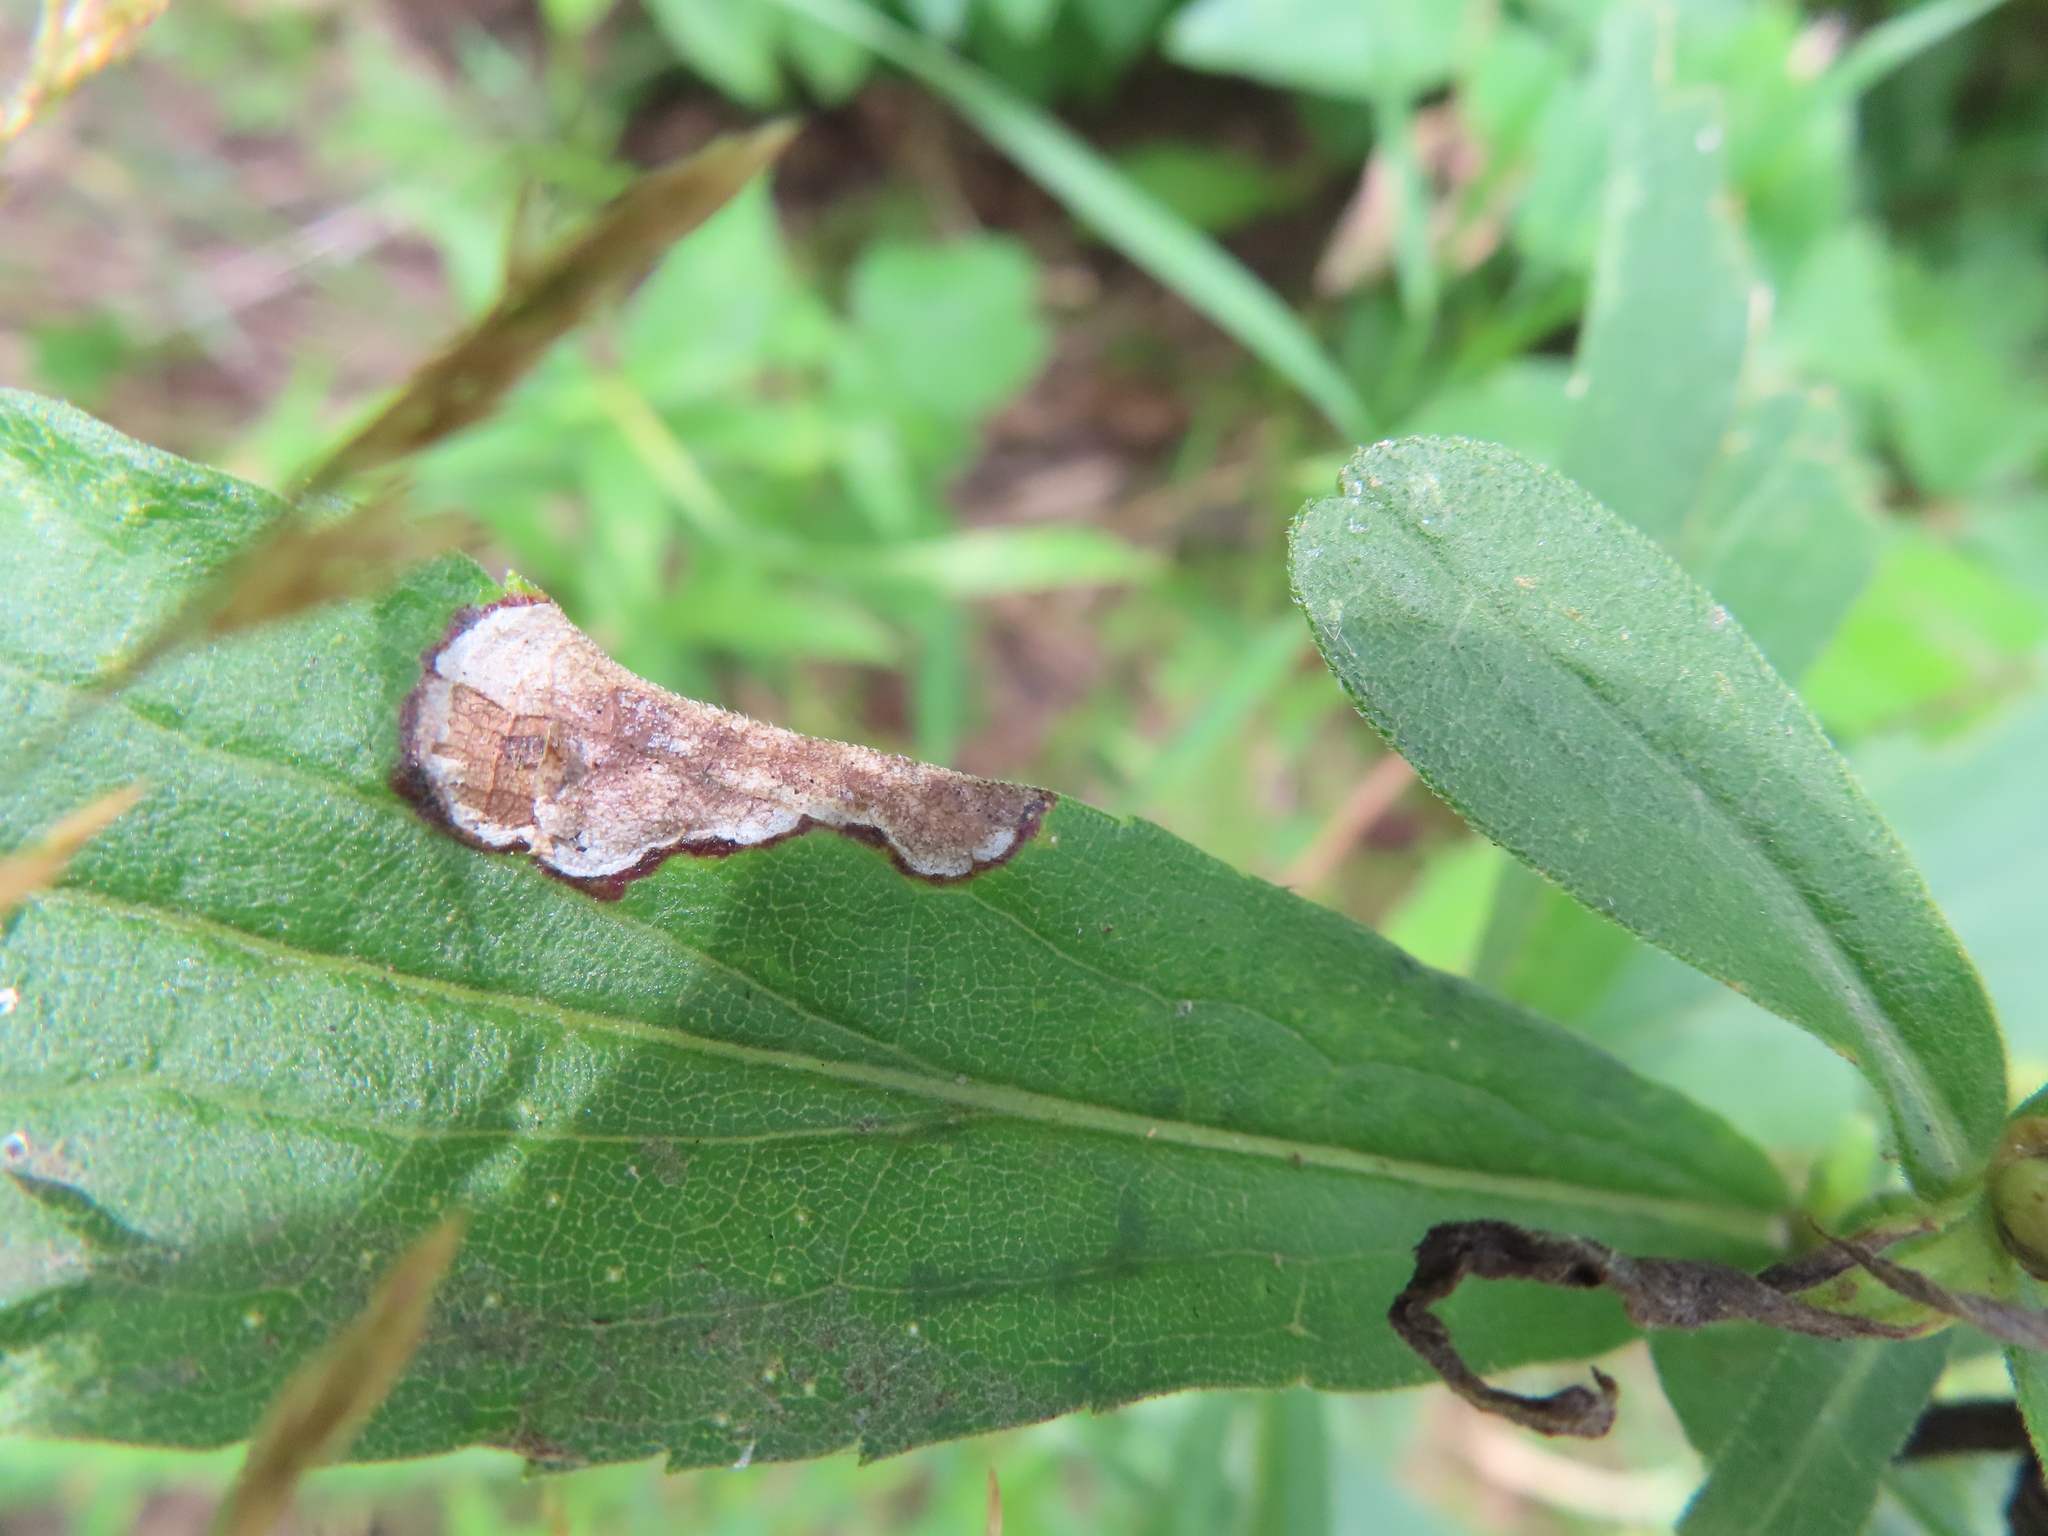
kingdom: Animalia
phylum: Arthropoda
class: Insecta
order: Diptera
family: Agromyzidae
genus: Nemorimyza
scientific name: Nemorimyza posticata
